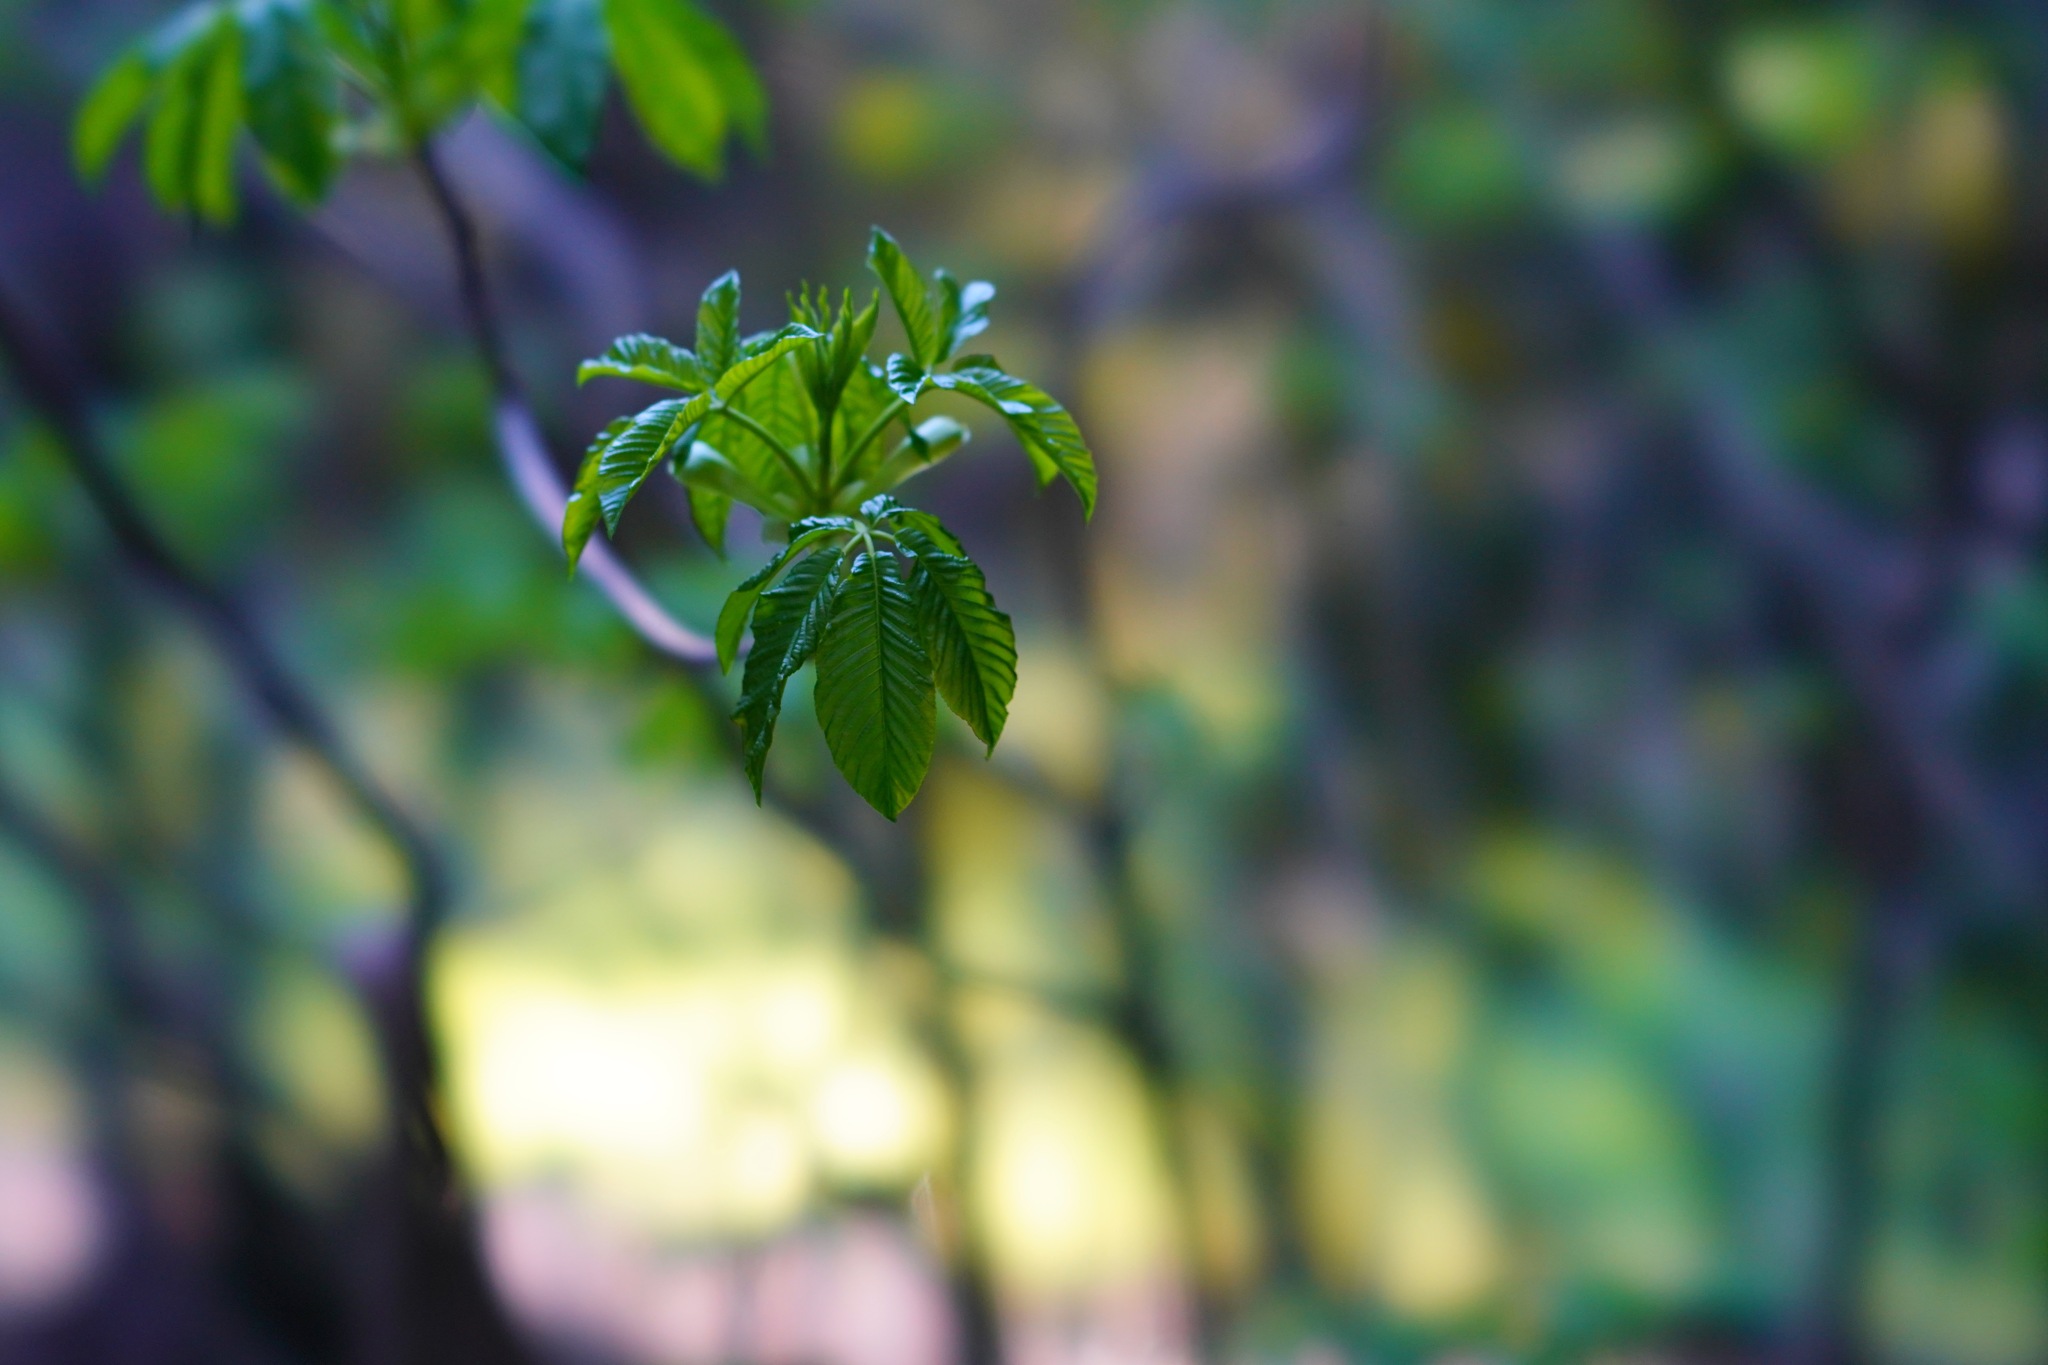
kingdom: Plantae
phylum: Tracheophyta
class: Magnoliopsida
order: Sapindales
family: Sapindaceae
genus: Aesculus
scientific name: Aesculus californica
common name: California buckeye
